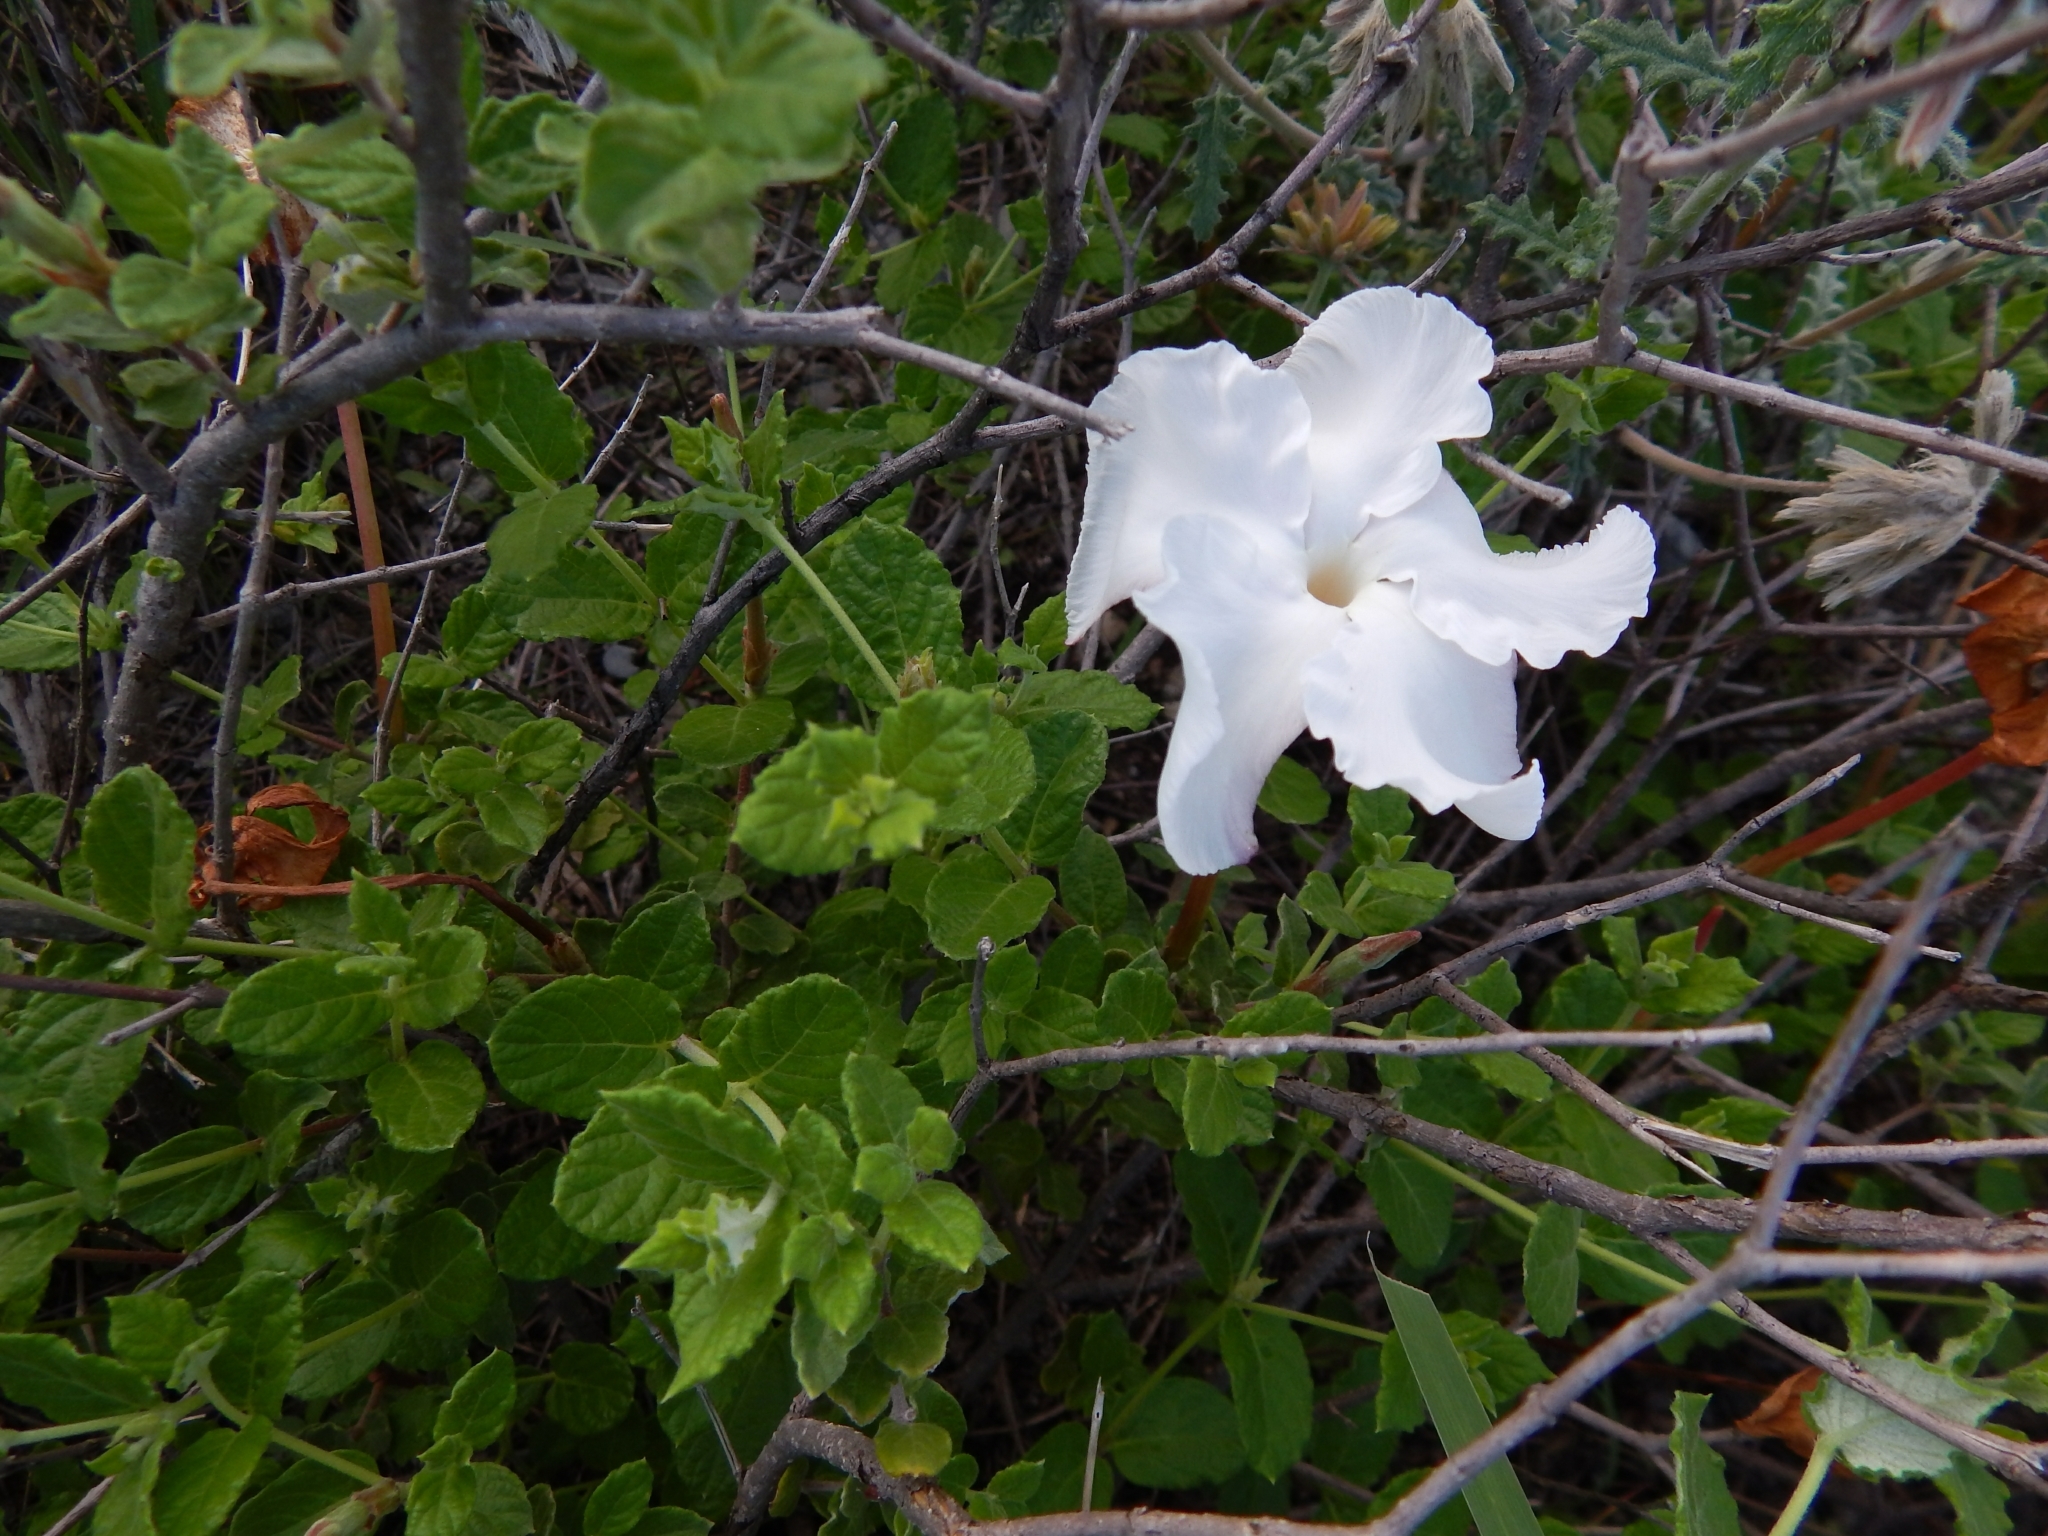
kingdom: Plantae
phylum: Tracheophyta
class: Magnoliopsida
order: Gentianales
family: Apocynaceae
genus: Mandevilla
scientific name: Mandevilla lanuginosa
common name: Plateau rocktrumpet
